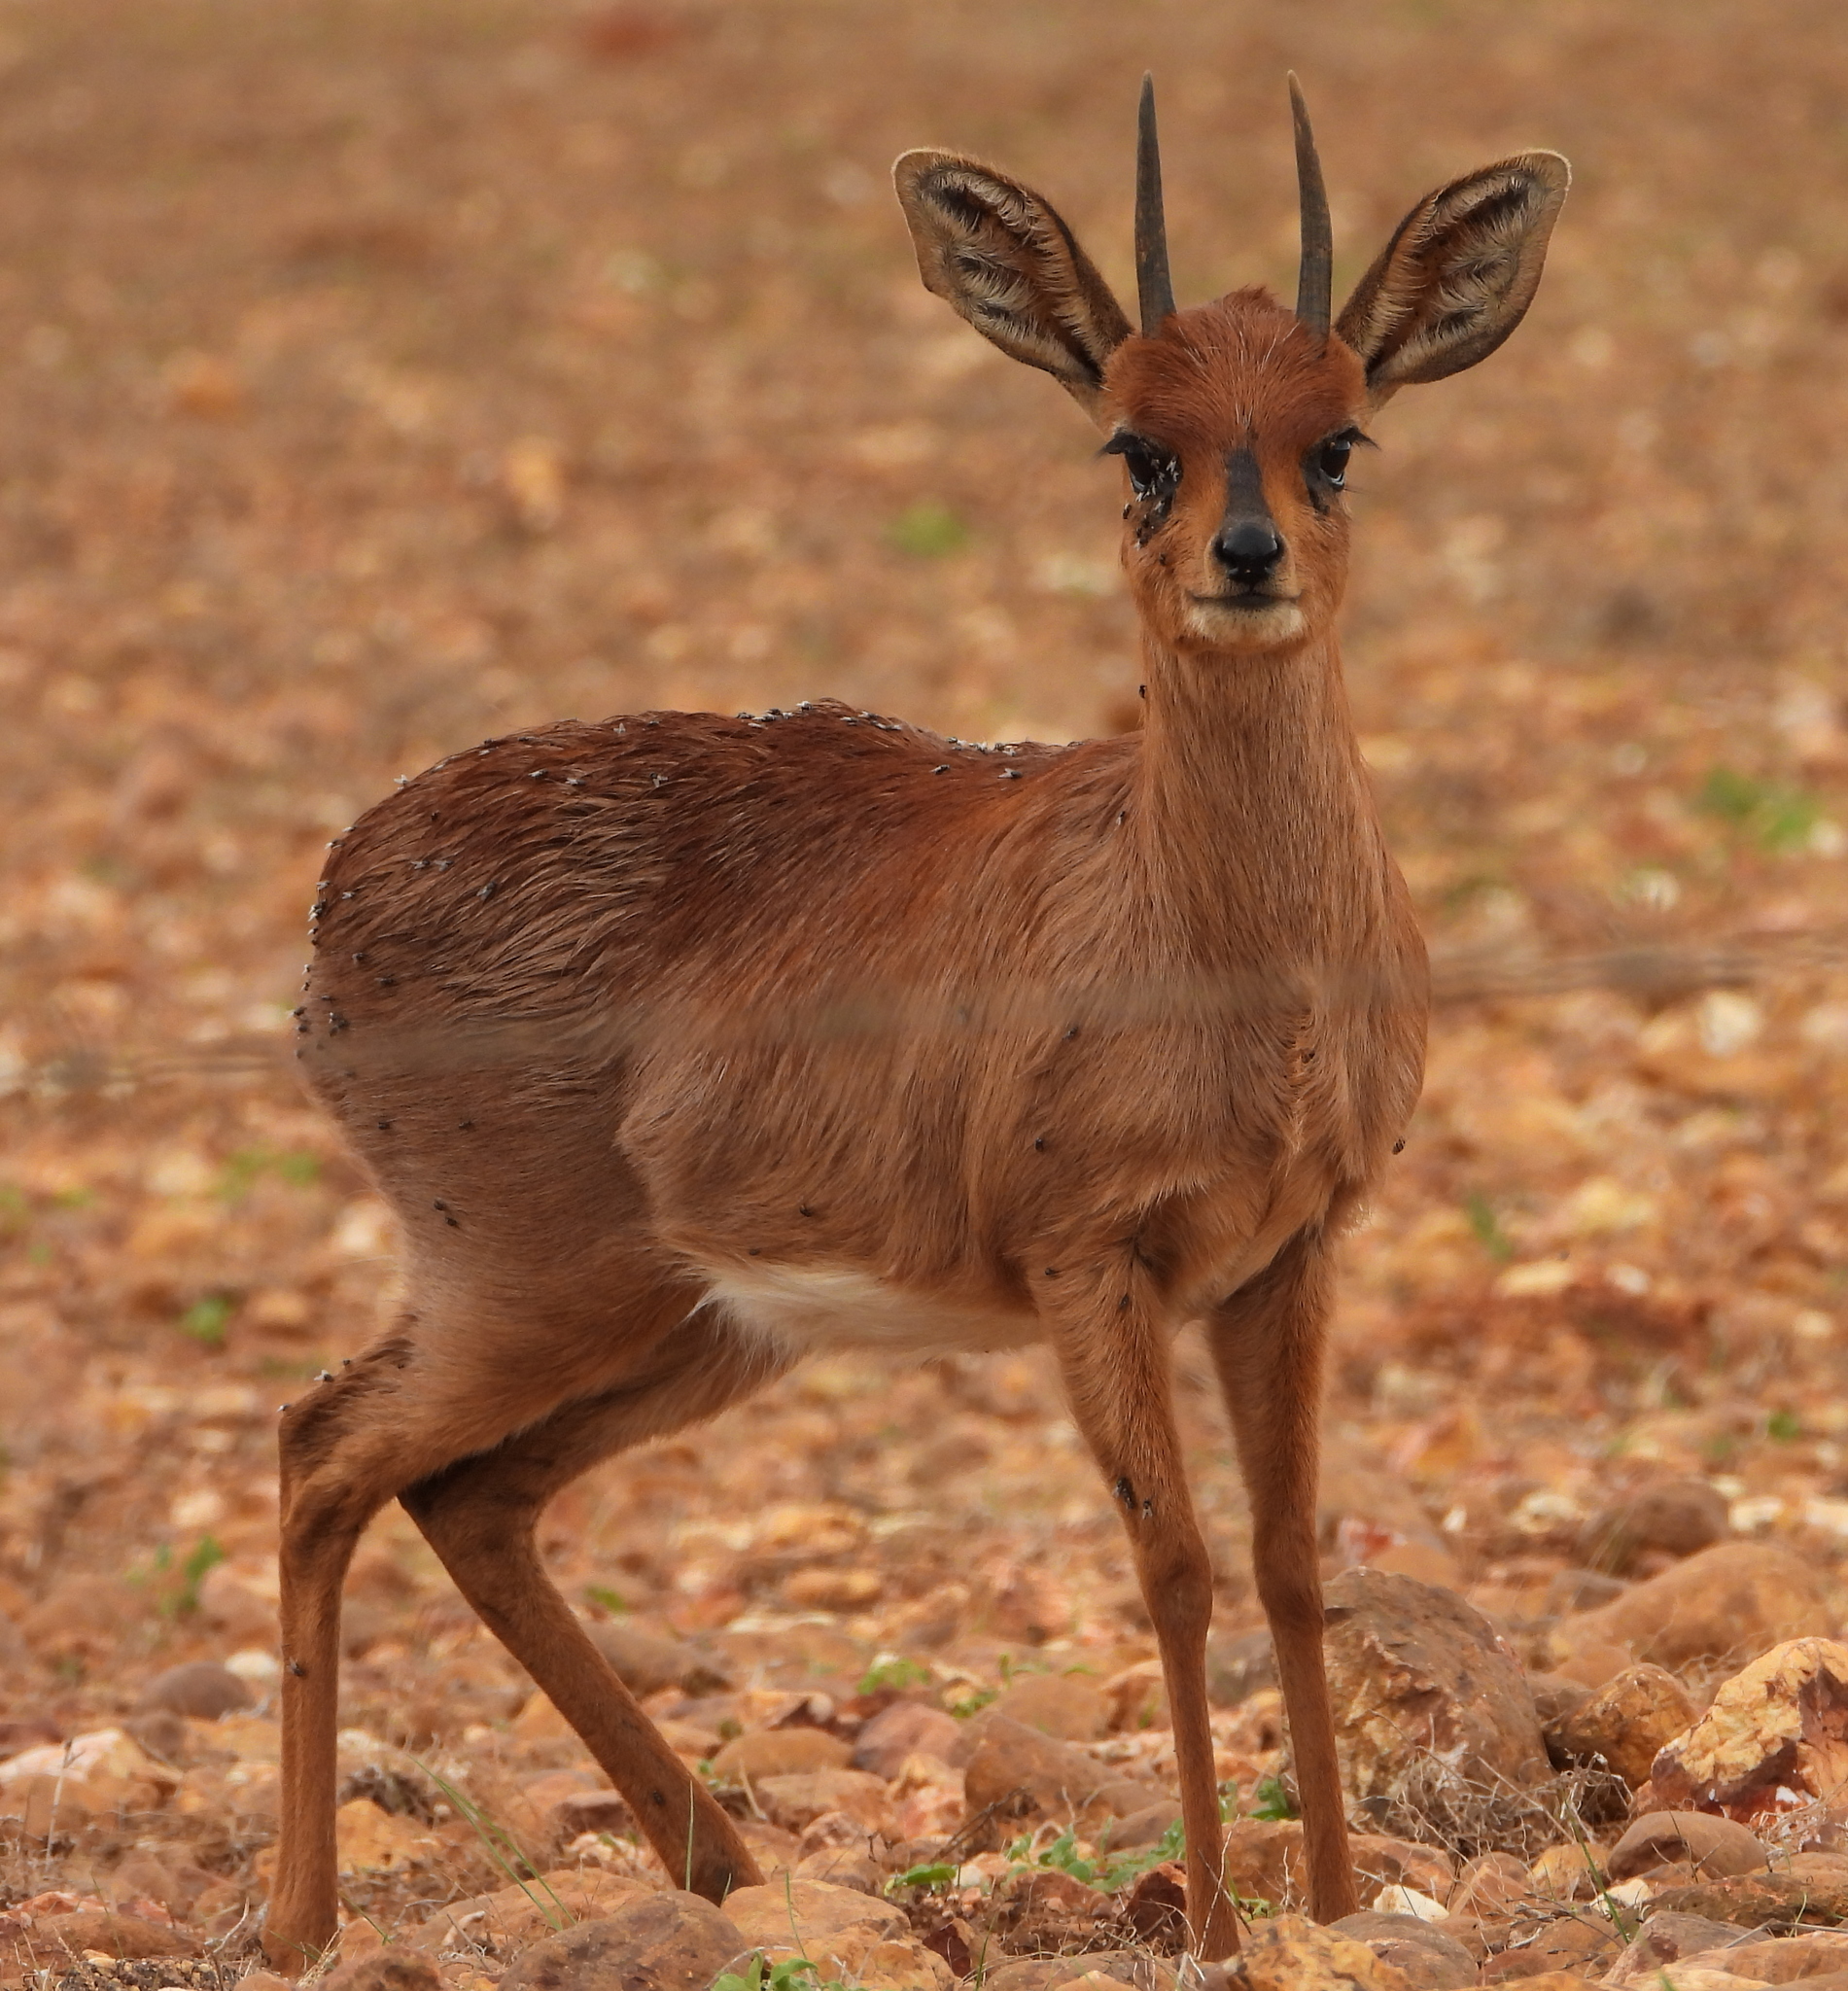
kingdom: Animalia
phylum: Chordata
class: Mammalia
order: Artiodactyla
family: Bovidae
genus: Raphicerus
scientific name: Raphicerus campestris
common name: Steenbok
